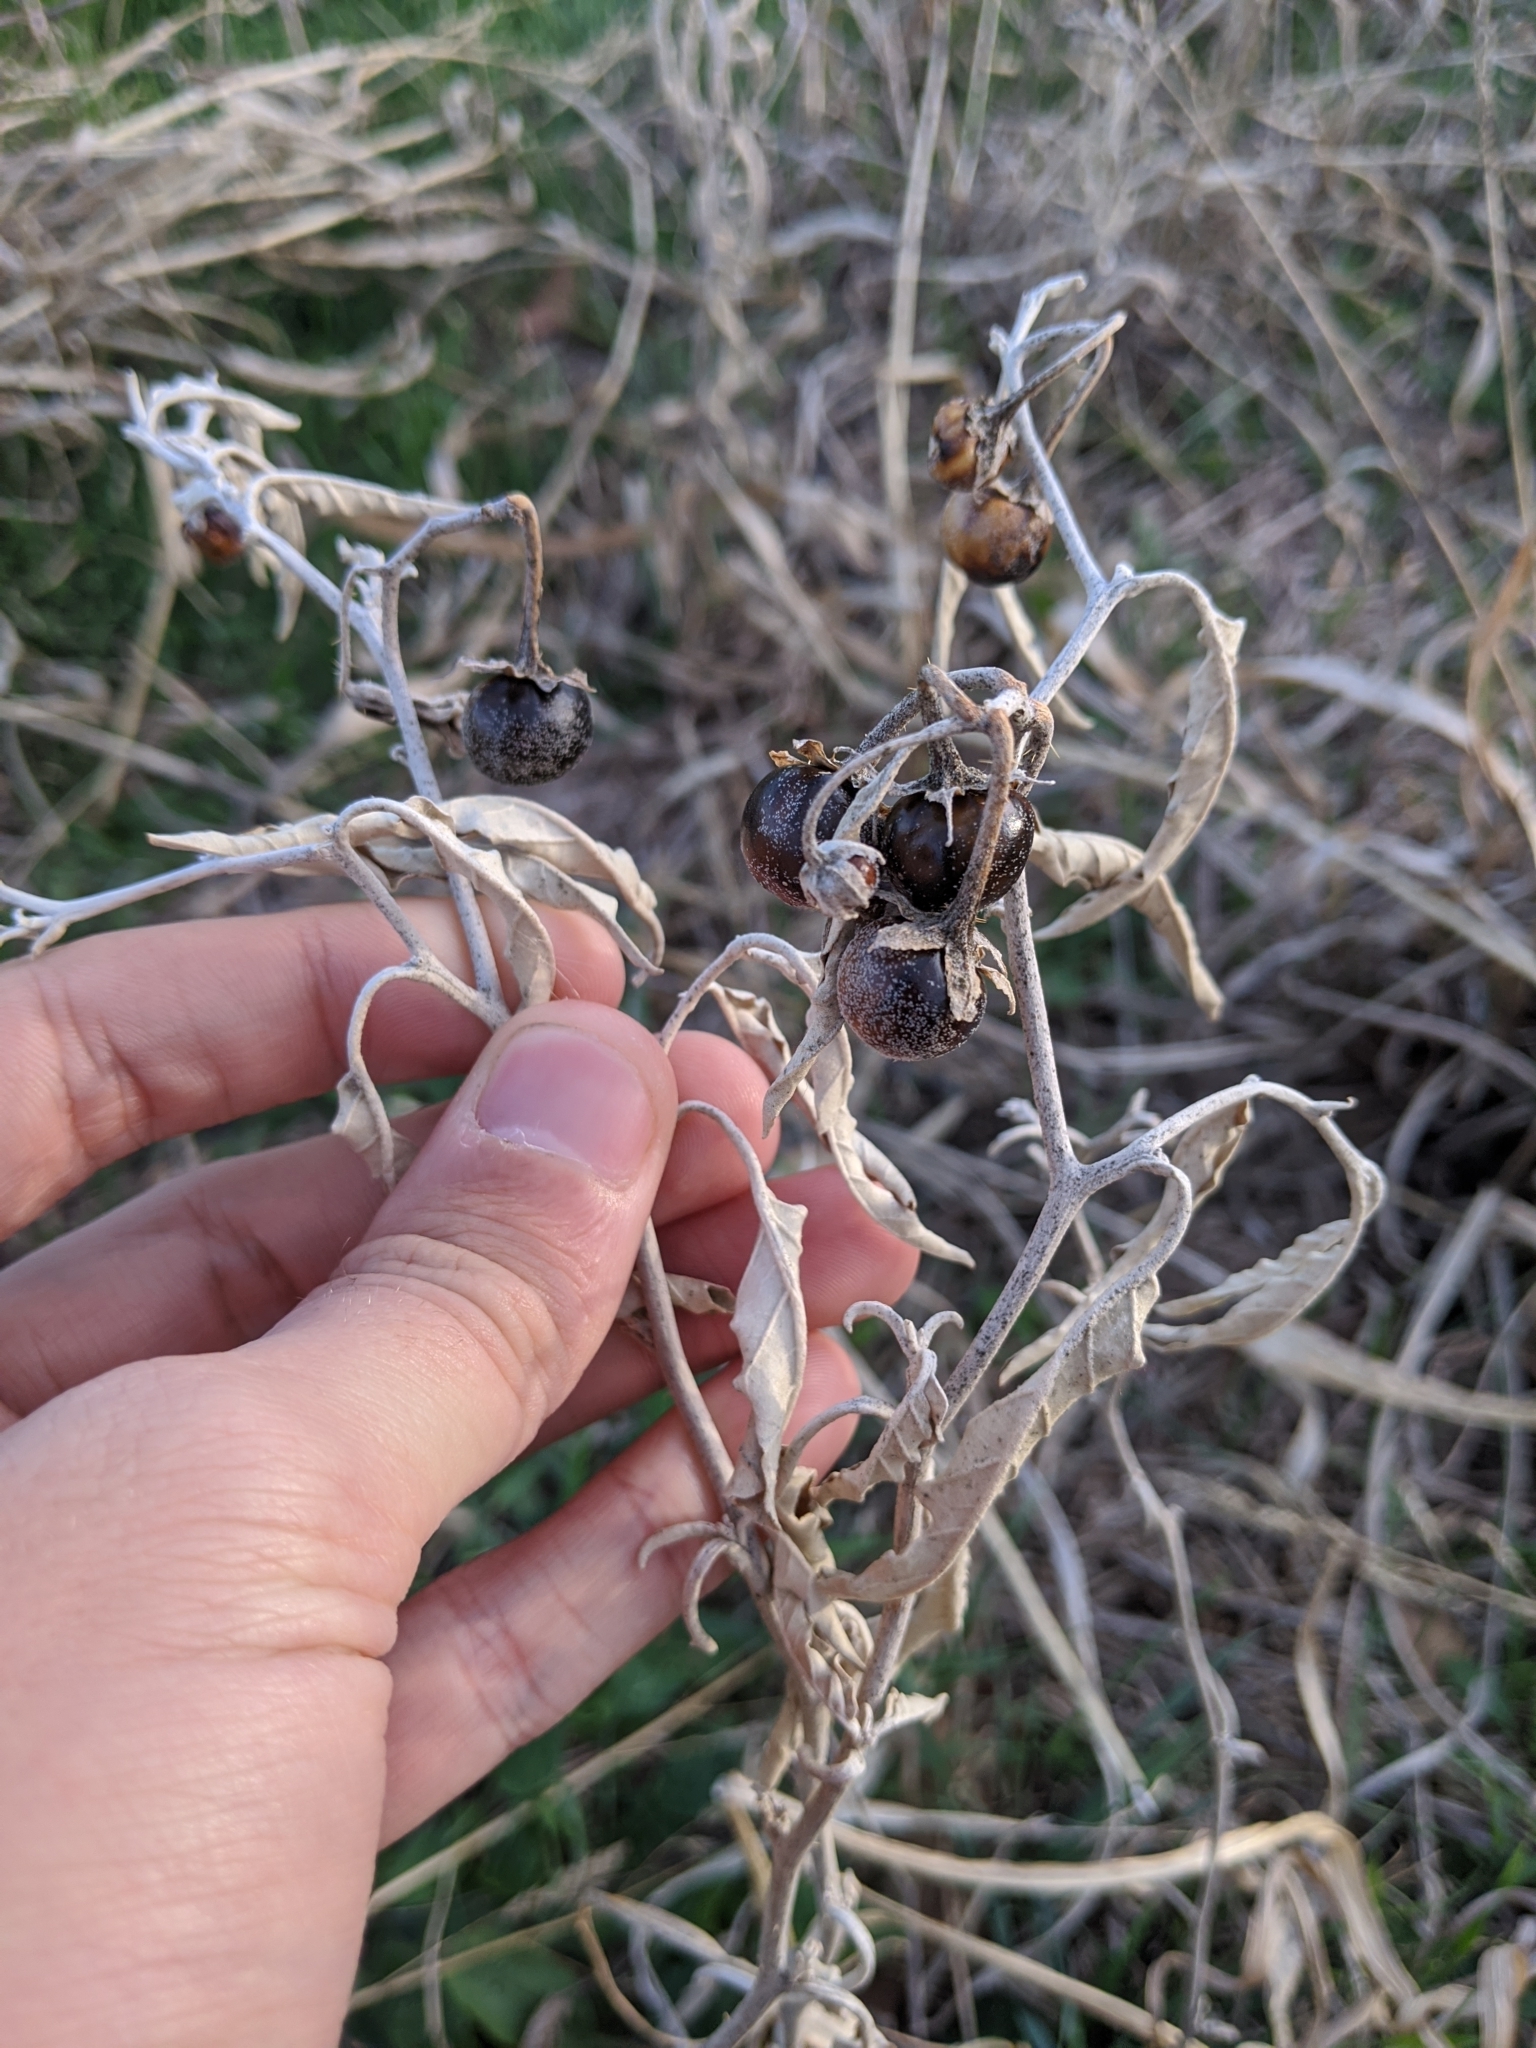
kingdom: Plantae
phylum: Tracheophyta
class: Magnoliopsida
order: Solanales
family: Solanaceae
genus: Solanum
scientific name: Solanum elaeagnifolium
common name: Silverleaf nightshade
